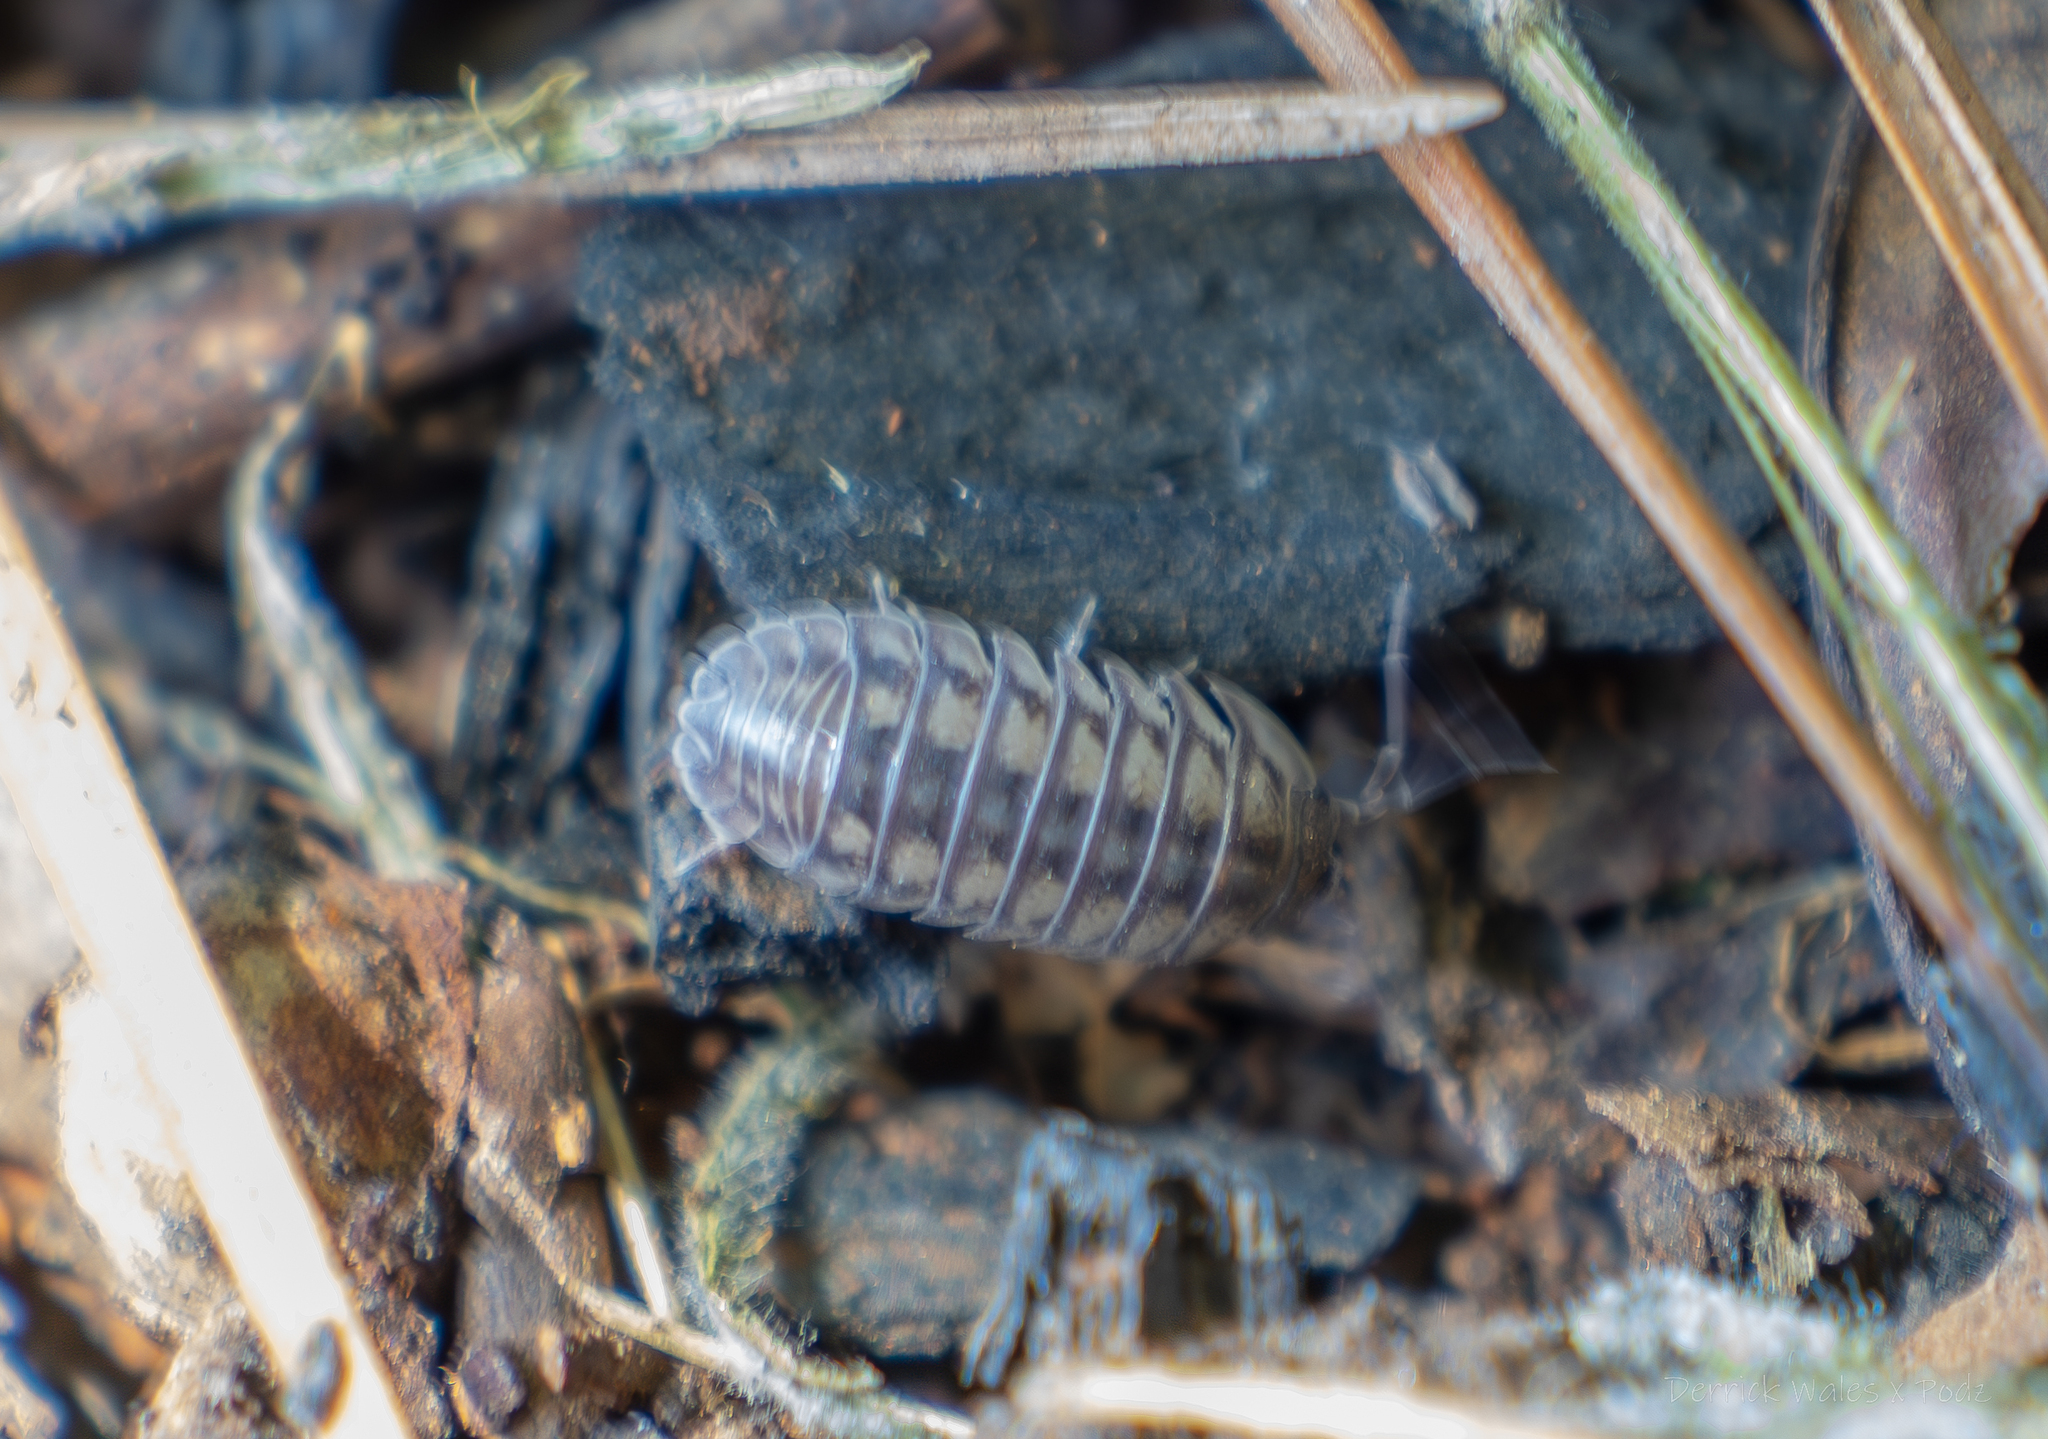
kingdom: Animalia
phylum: Arthropoda
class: Malacostraca
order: Isopoda
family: Armadillidiidae
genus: Armadillidium
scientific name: Armadillidium nasatum
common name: Isopod
